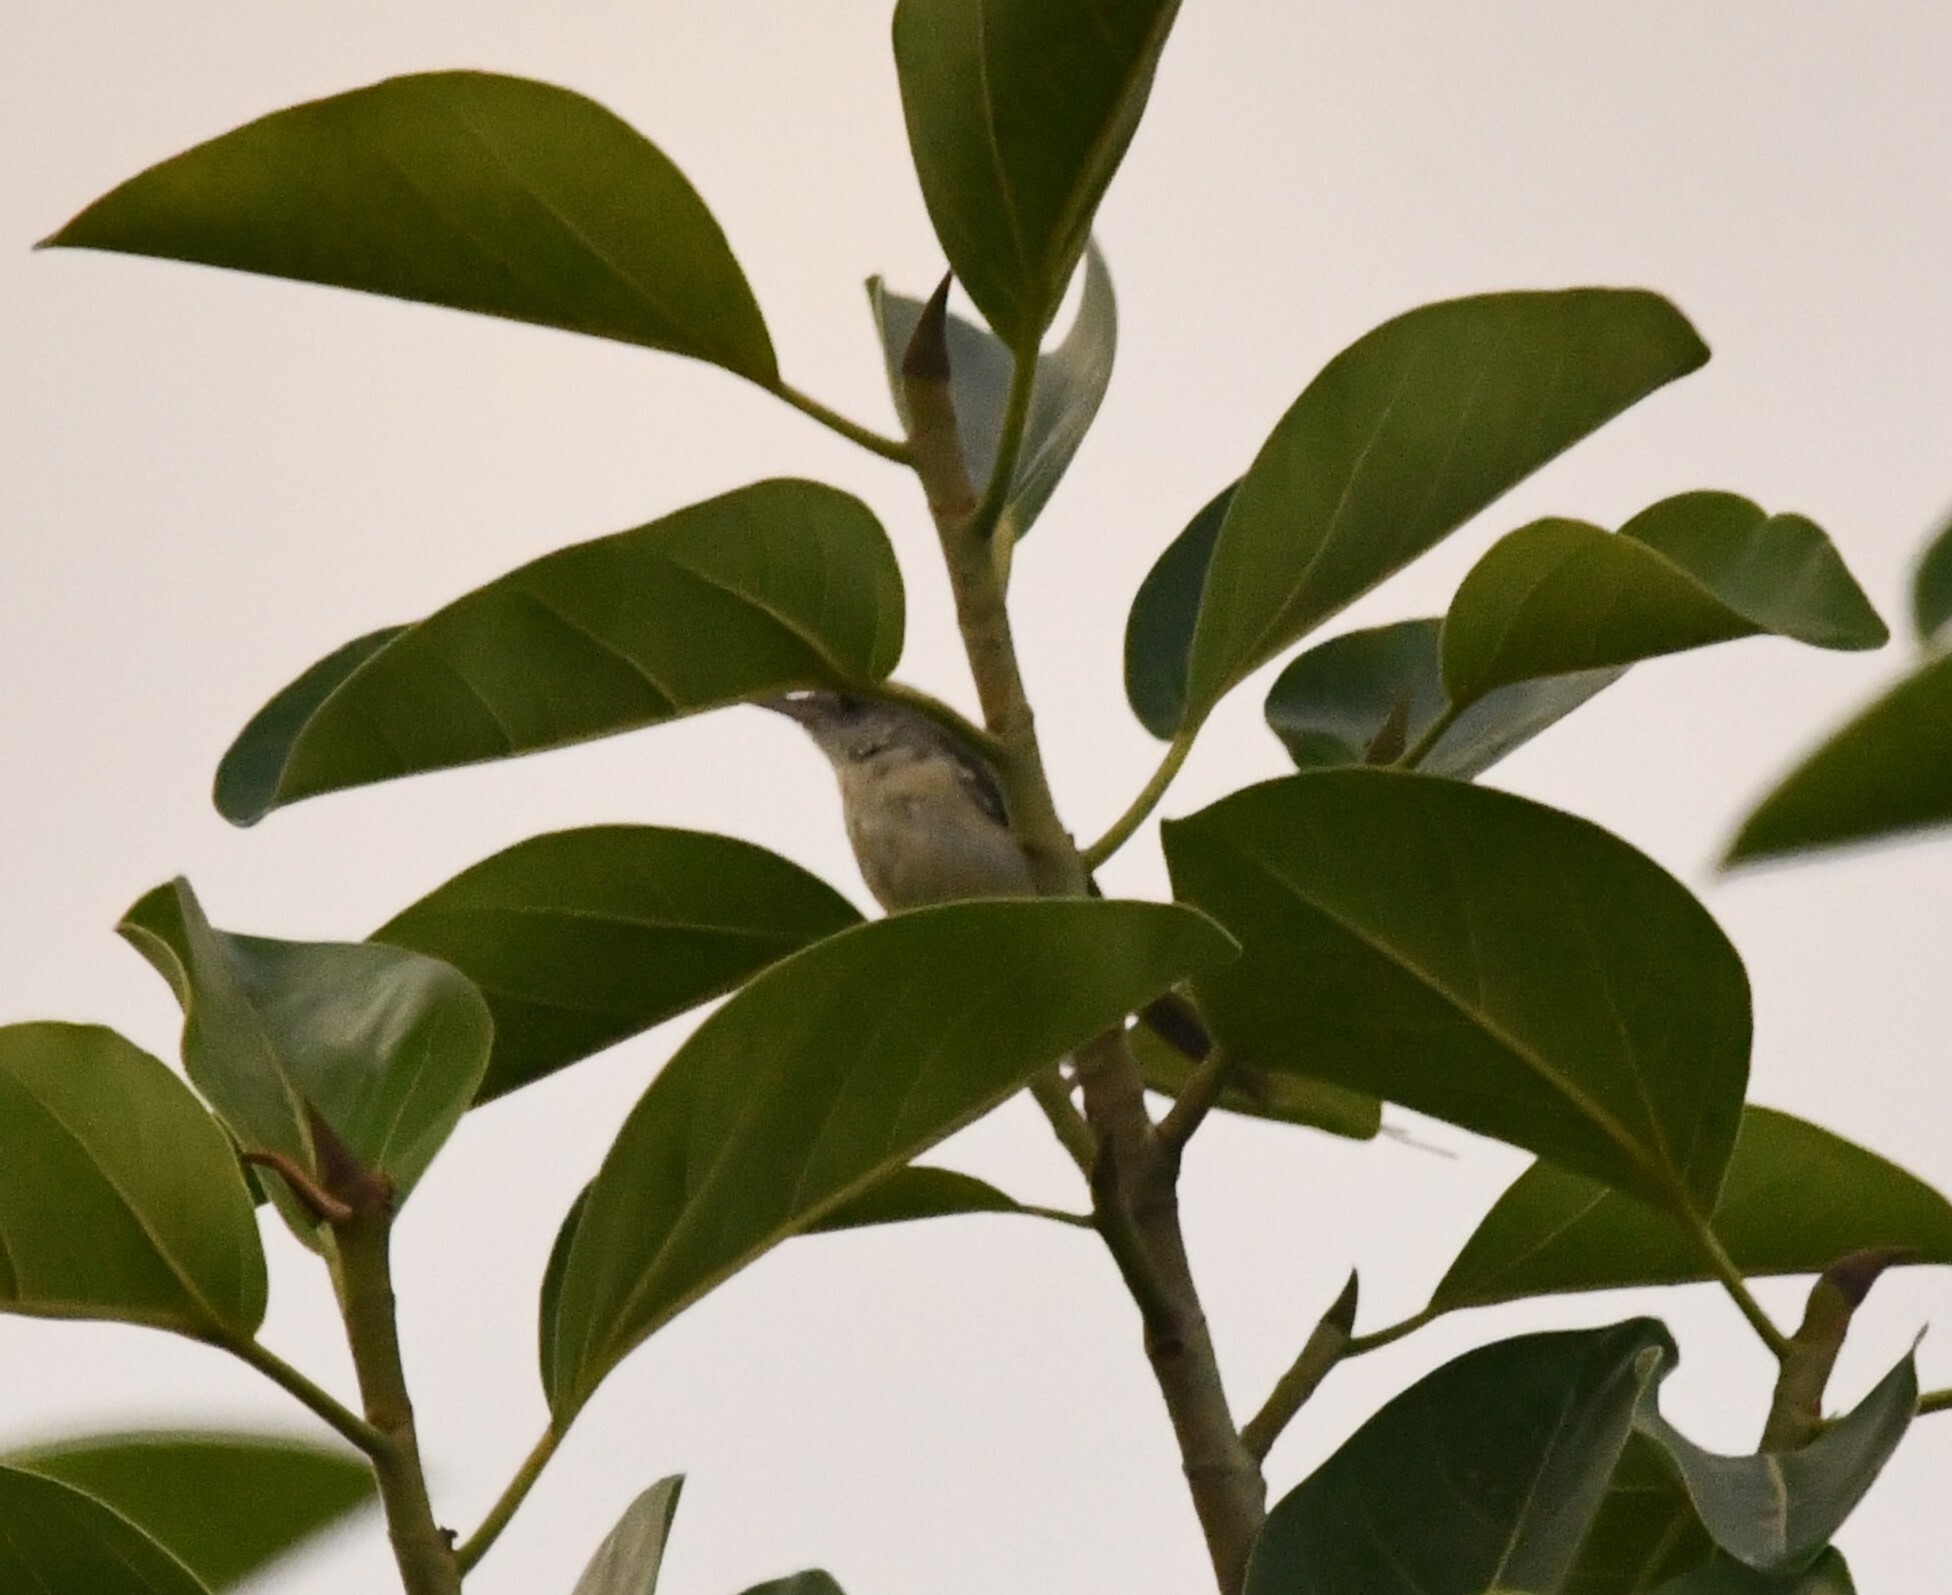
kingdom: Animalia
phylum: Chordata
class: Aves
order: Passeriformes
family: Cisticolidae
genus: Orthotomus
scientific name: Orthotomus sutorius
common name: Common tailorbird
